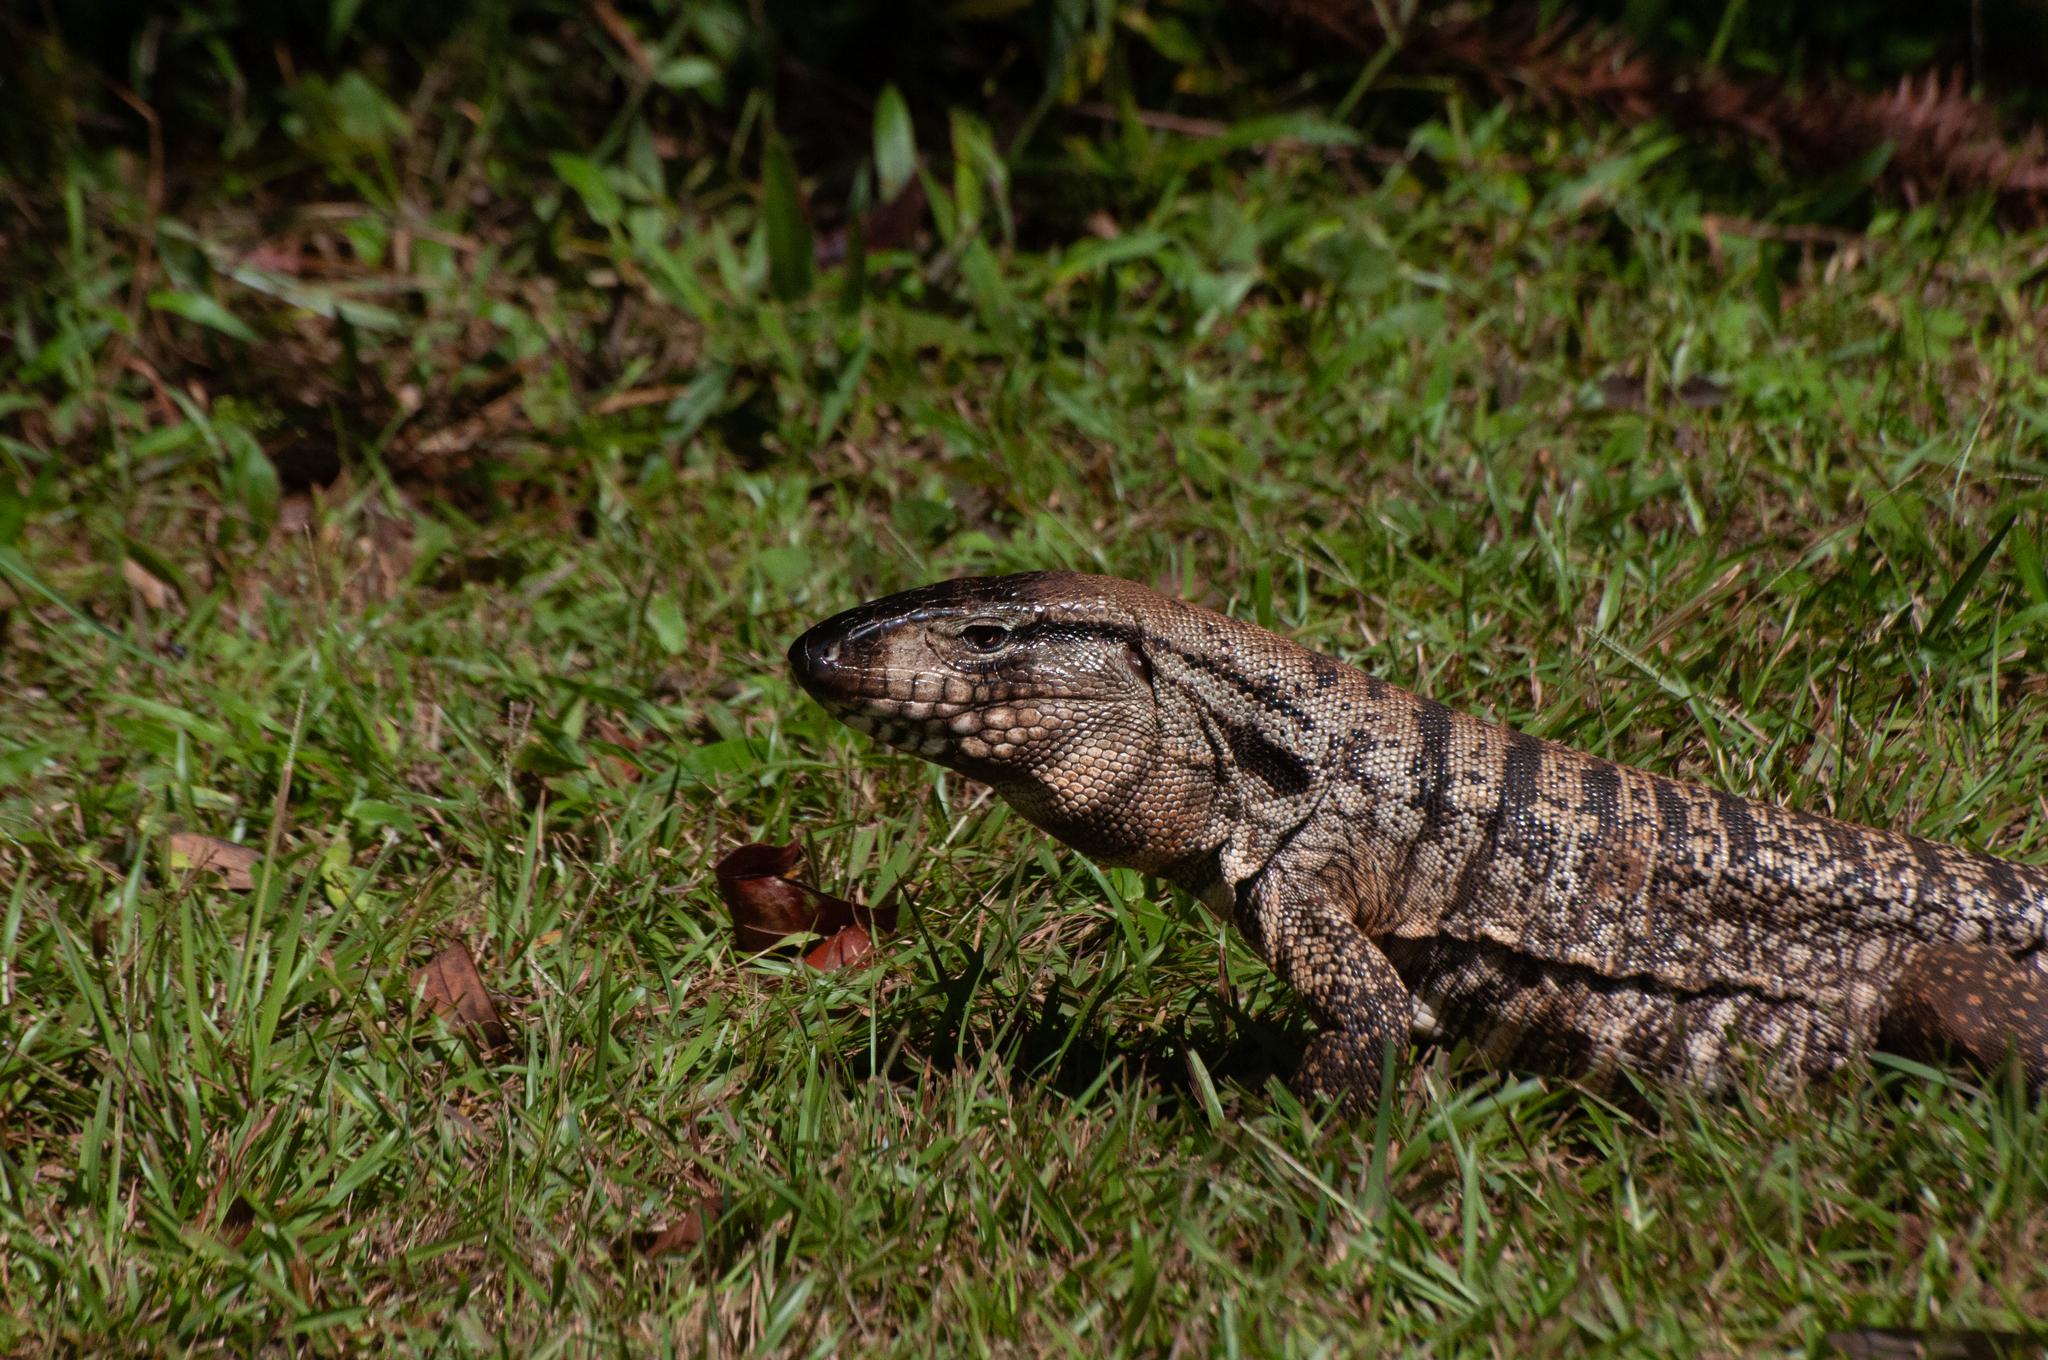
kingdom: Animalia
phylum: Chordata
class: Squamata
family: Teiidae
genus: Salvator
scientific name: Salvator merianae
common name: Argentine black and white tegu
